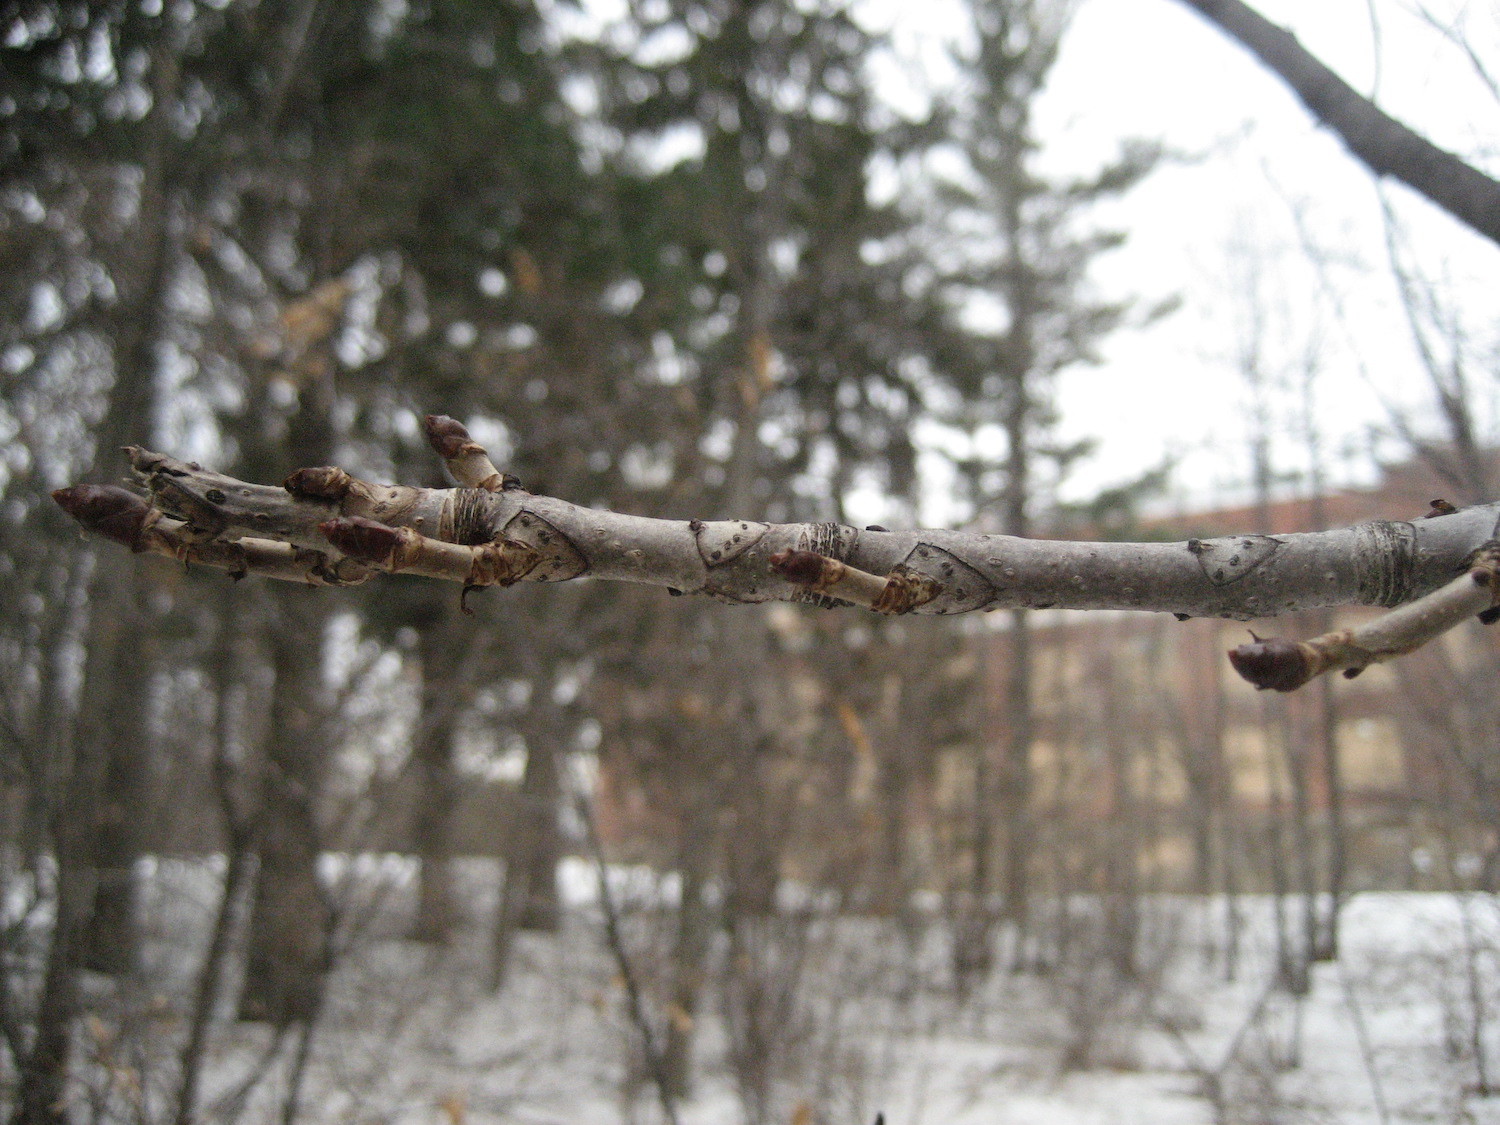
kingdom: Plantae
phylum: Tracheophyta
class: Magnoliopsida
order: Sapindales
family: Sapindaceae
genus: Aesculus
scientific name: Aesculus hippocastanum
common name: Horse-chestnut
